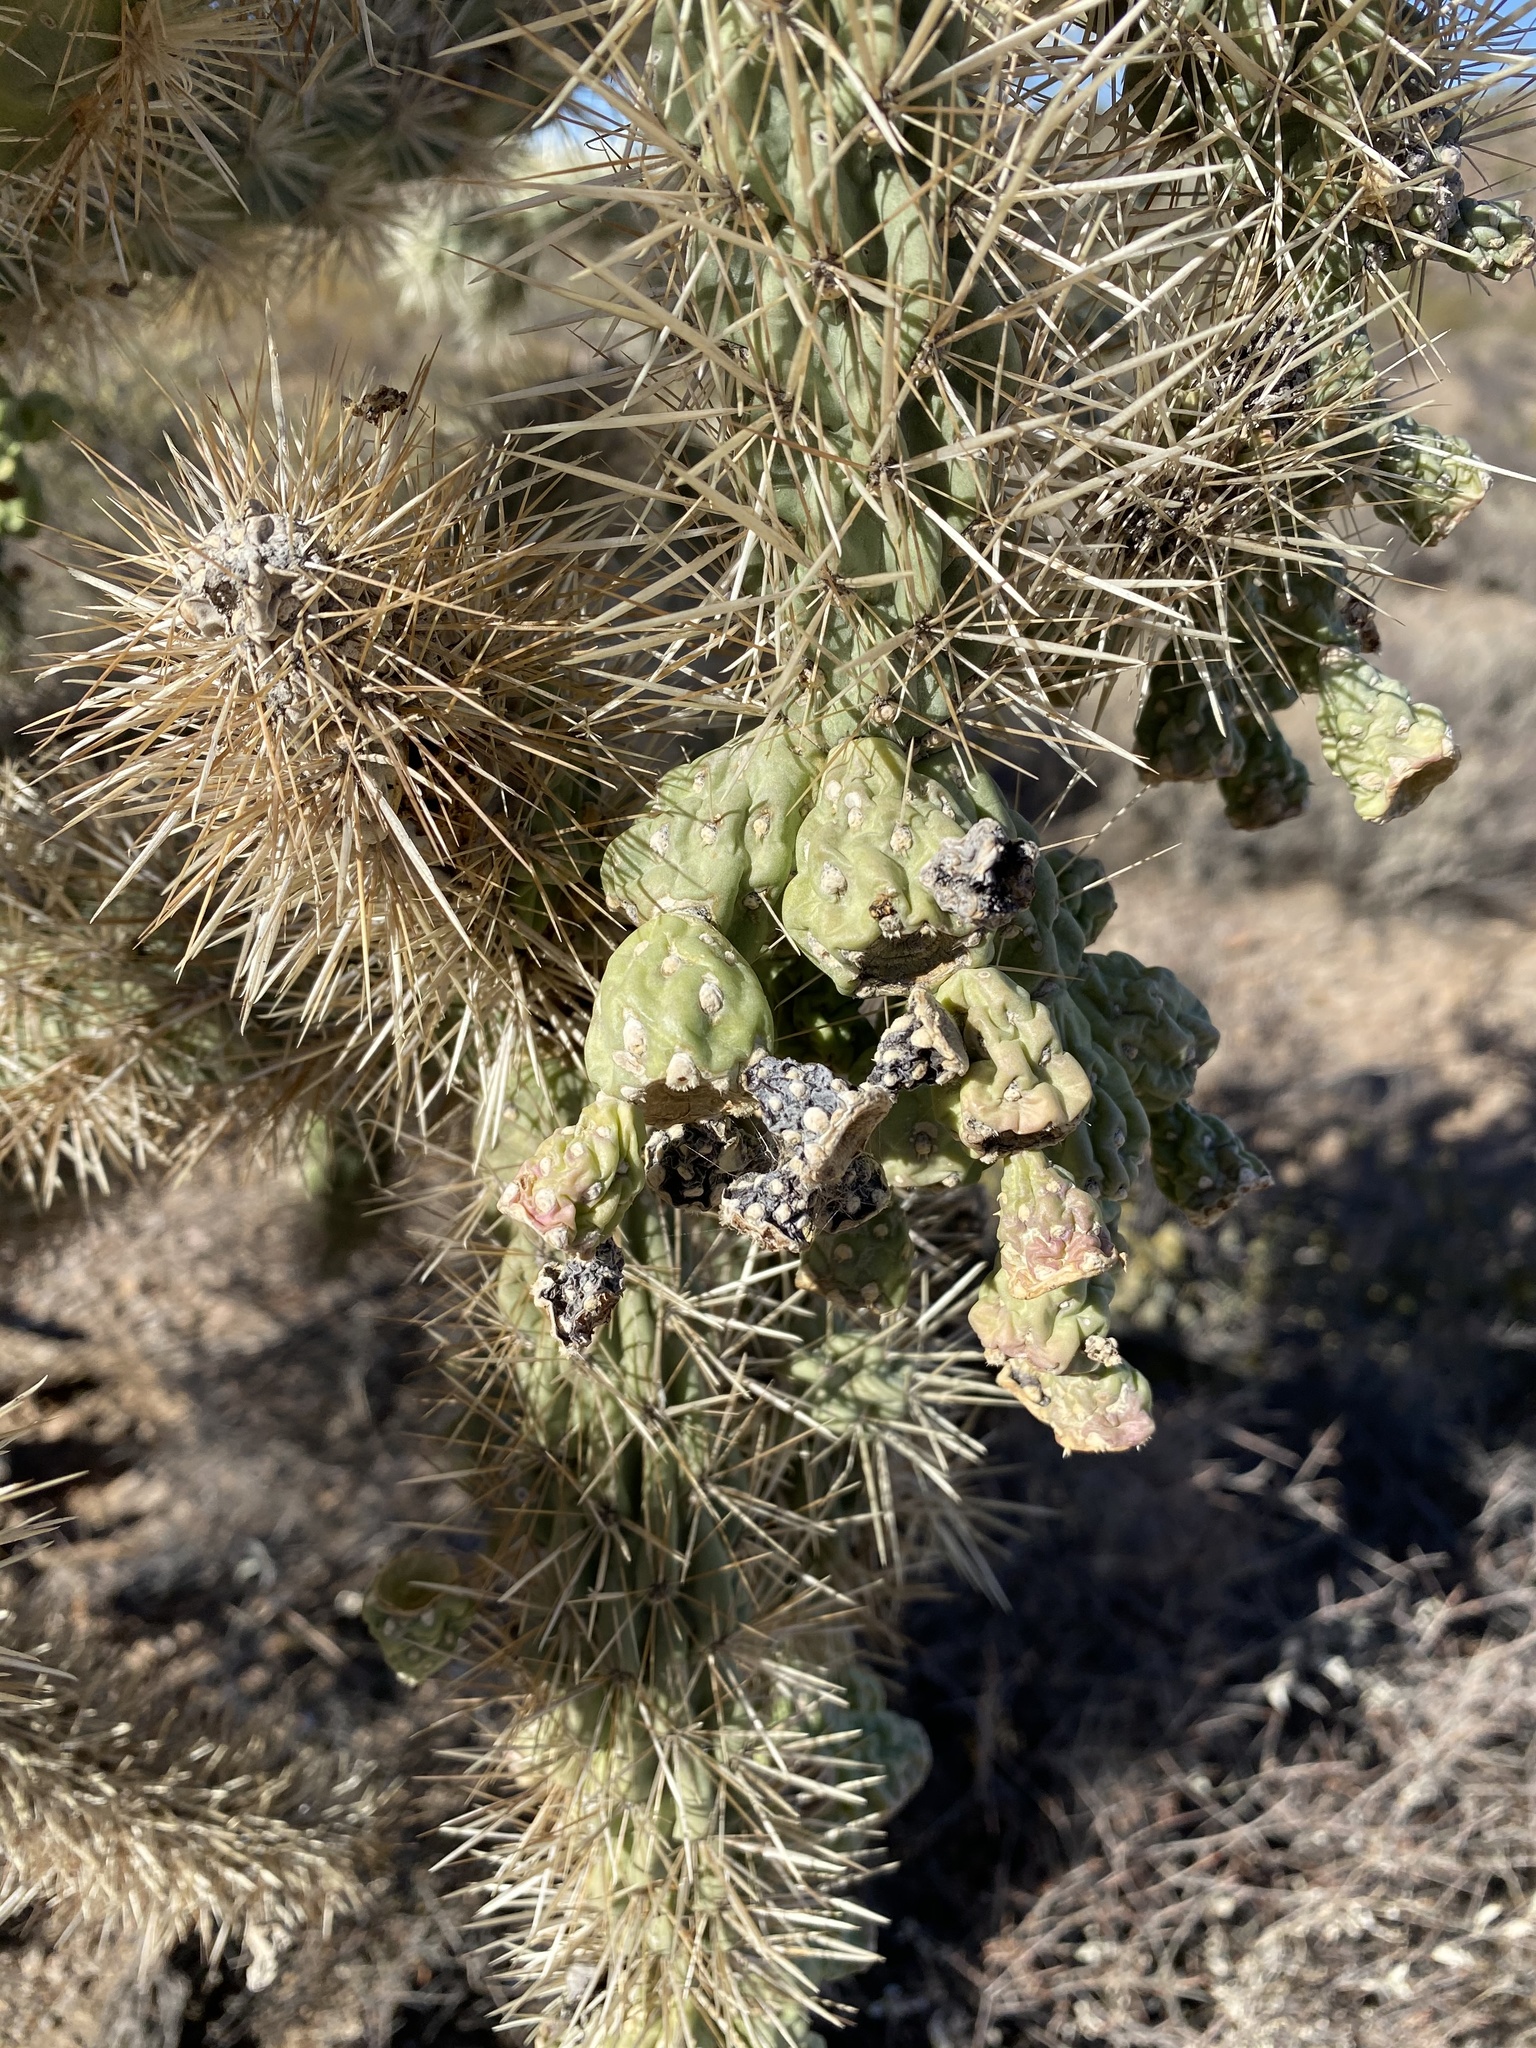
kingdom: Plantae
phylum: Tracheophyta
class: Magnoliopsida
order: Caryophyllales
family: Cactaceae
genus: Cylindropuntia
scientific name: Cylindropuntia fulgida
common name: Jumping cholla
